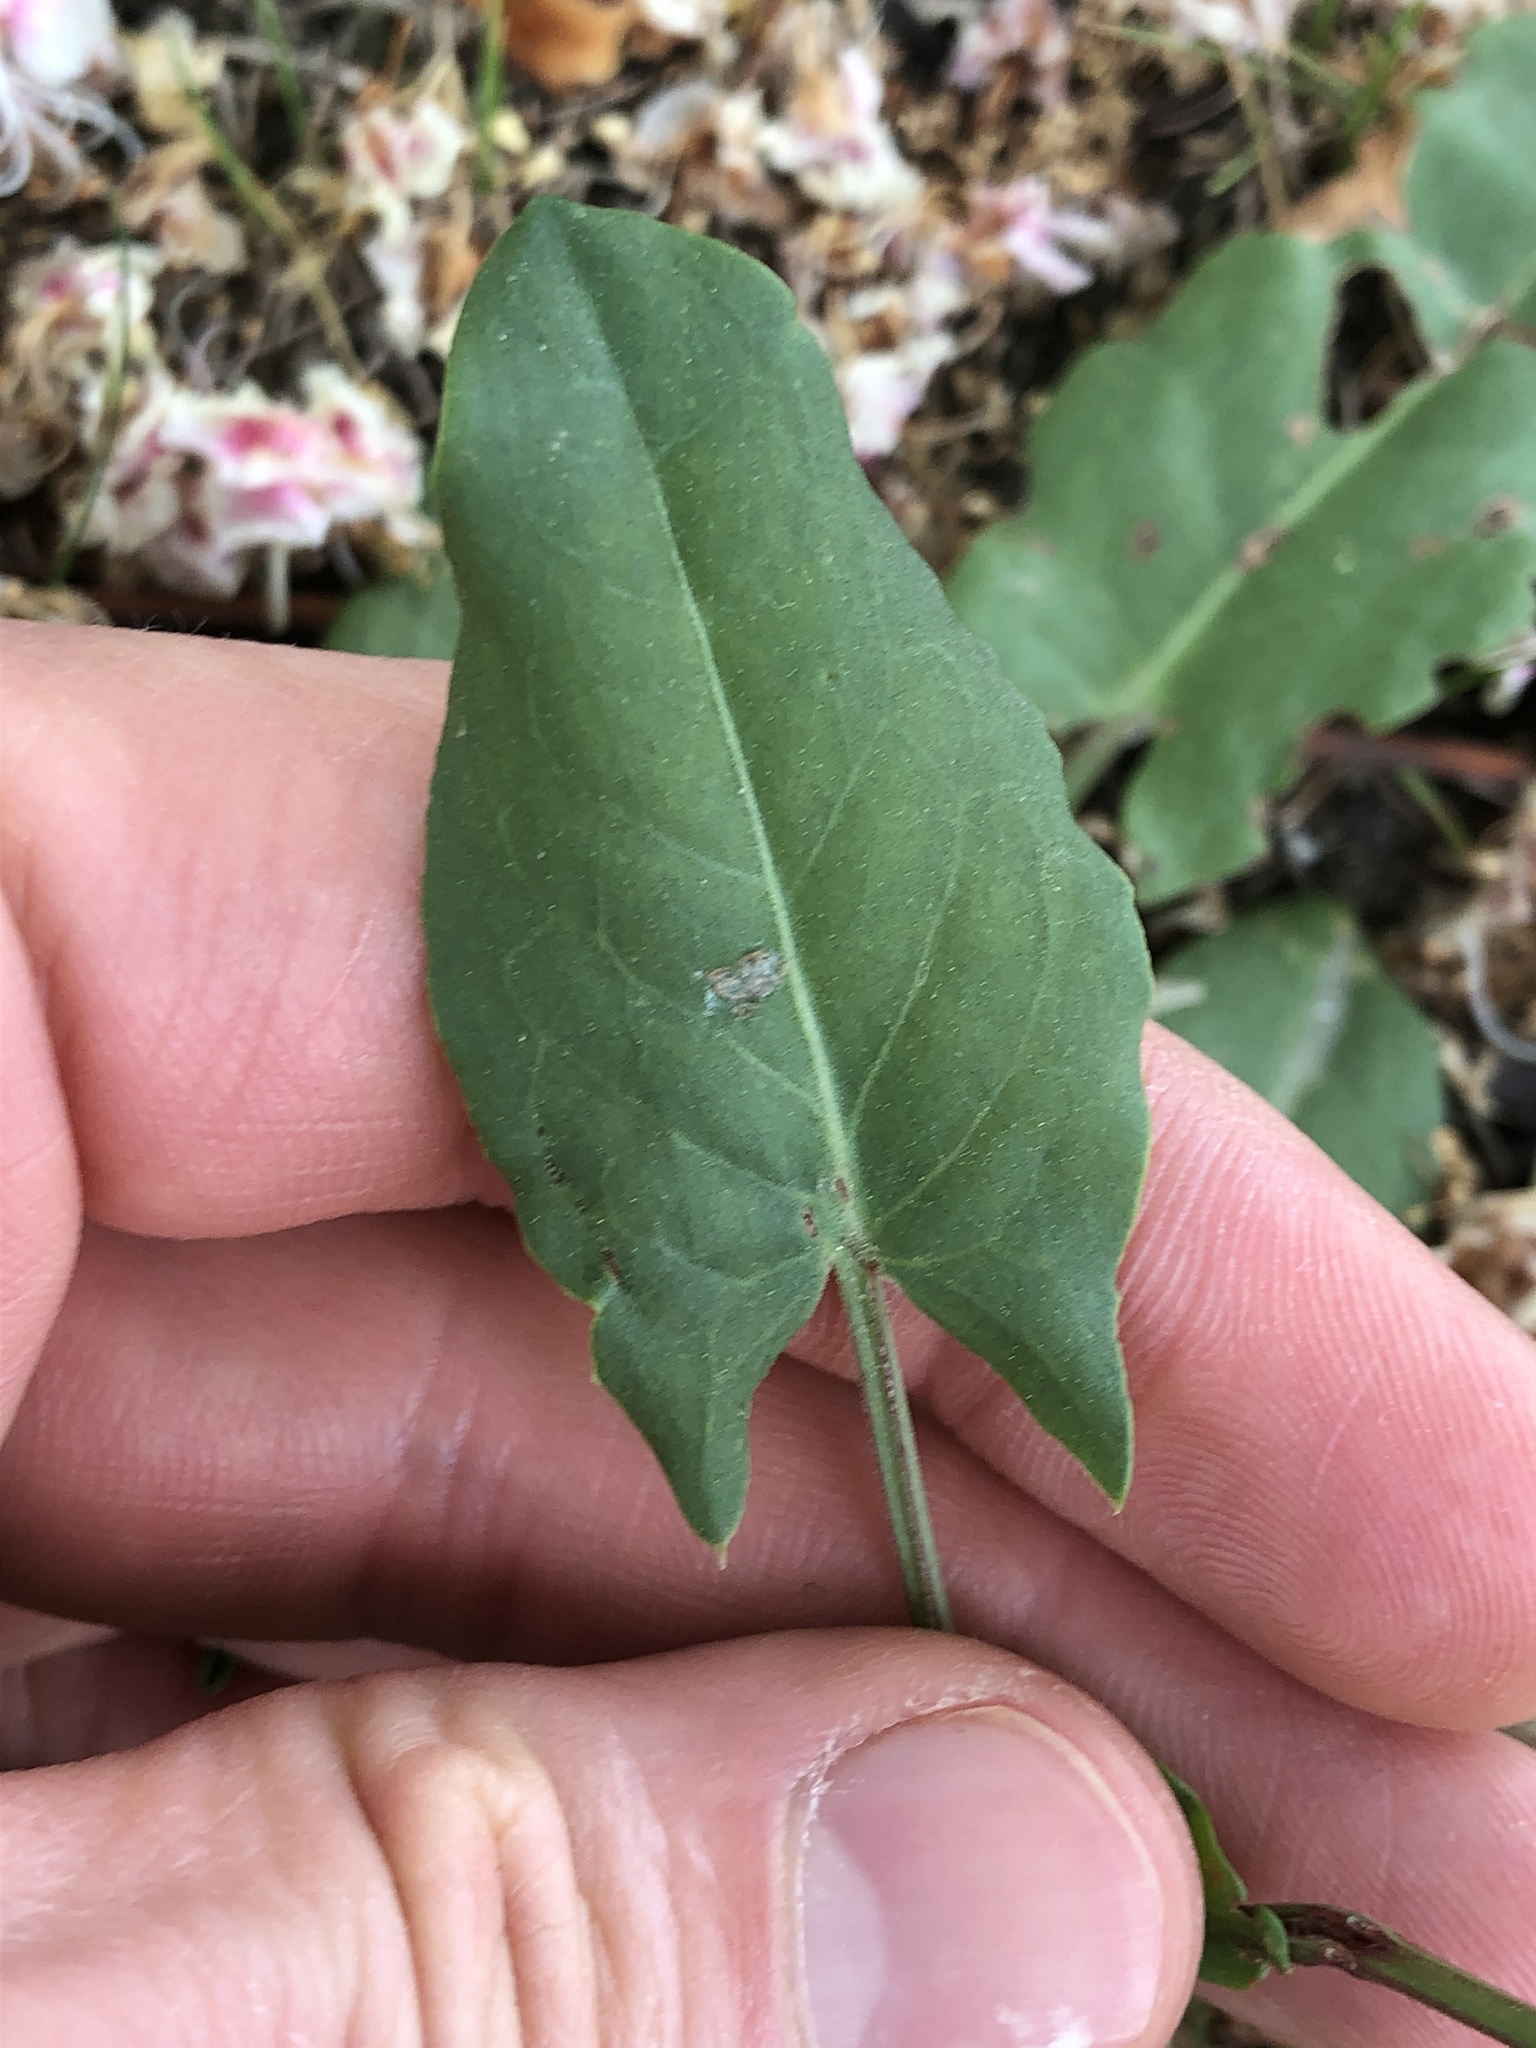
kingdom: Animalia
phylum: Arthropoda
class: Insecta
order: Diptera
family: Anthomyiidae
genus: Pegomya
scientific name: Pegomya solennis
